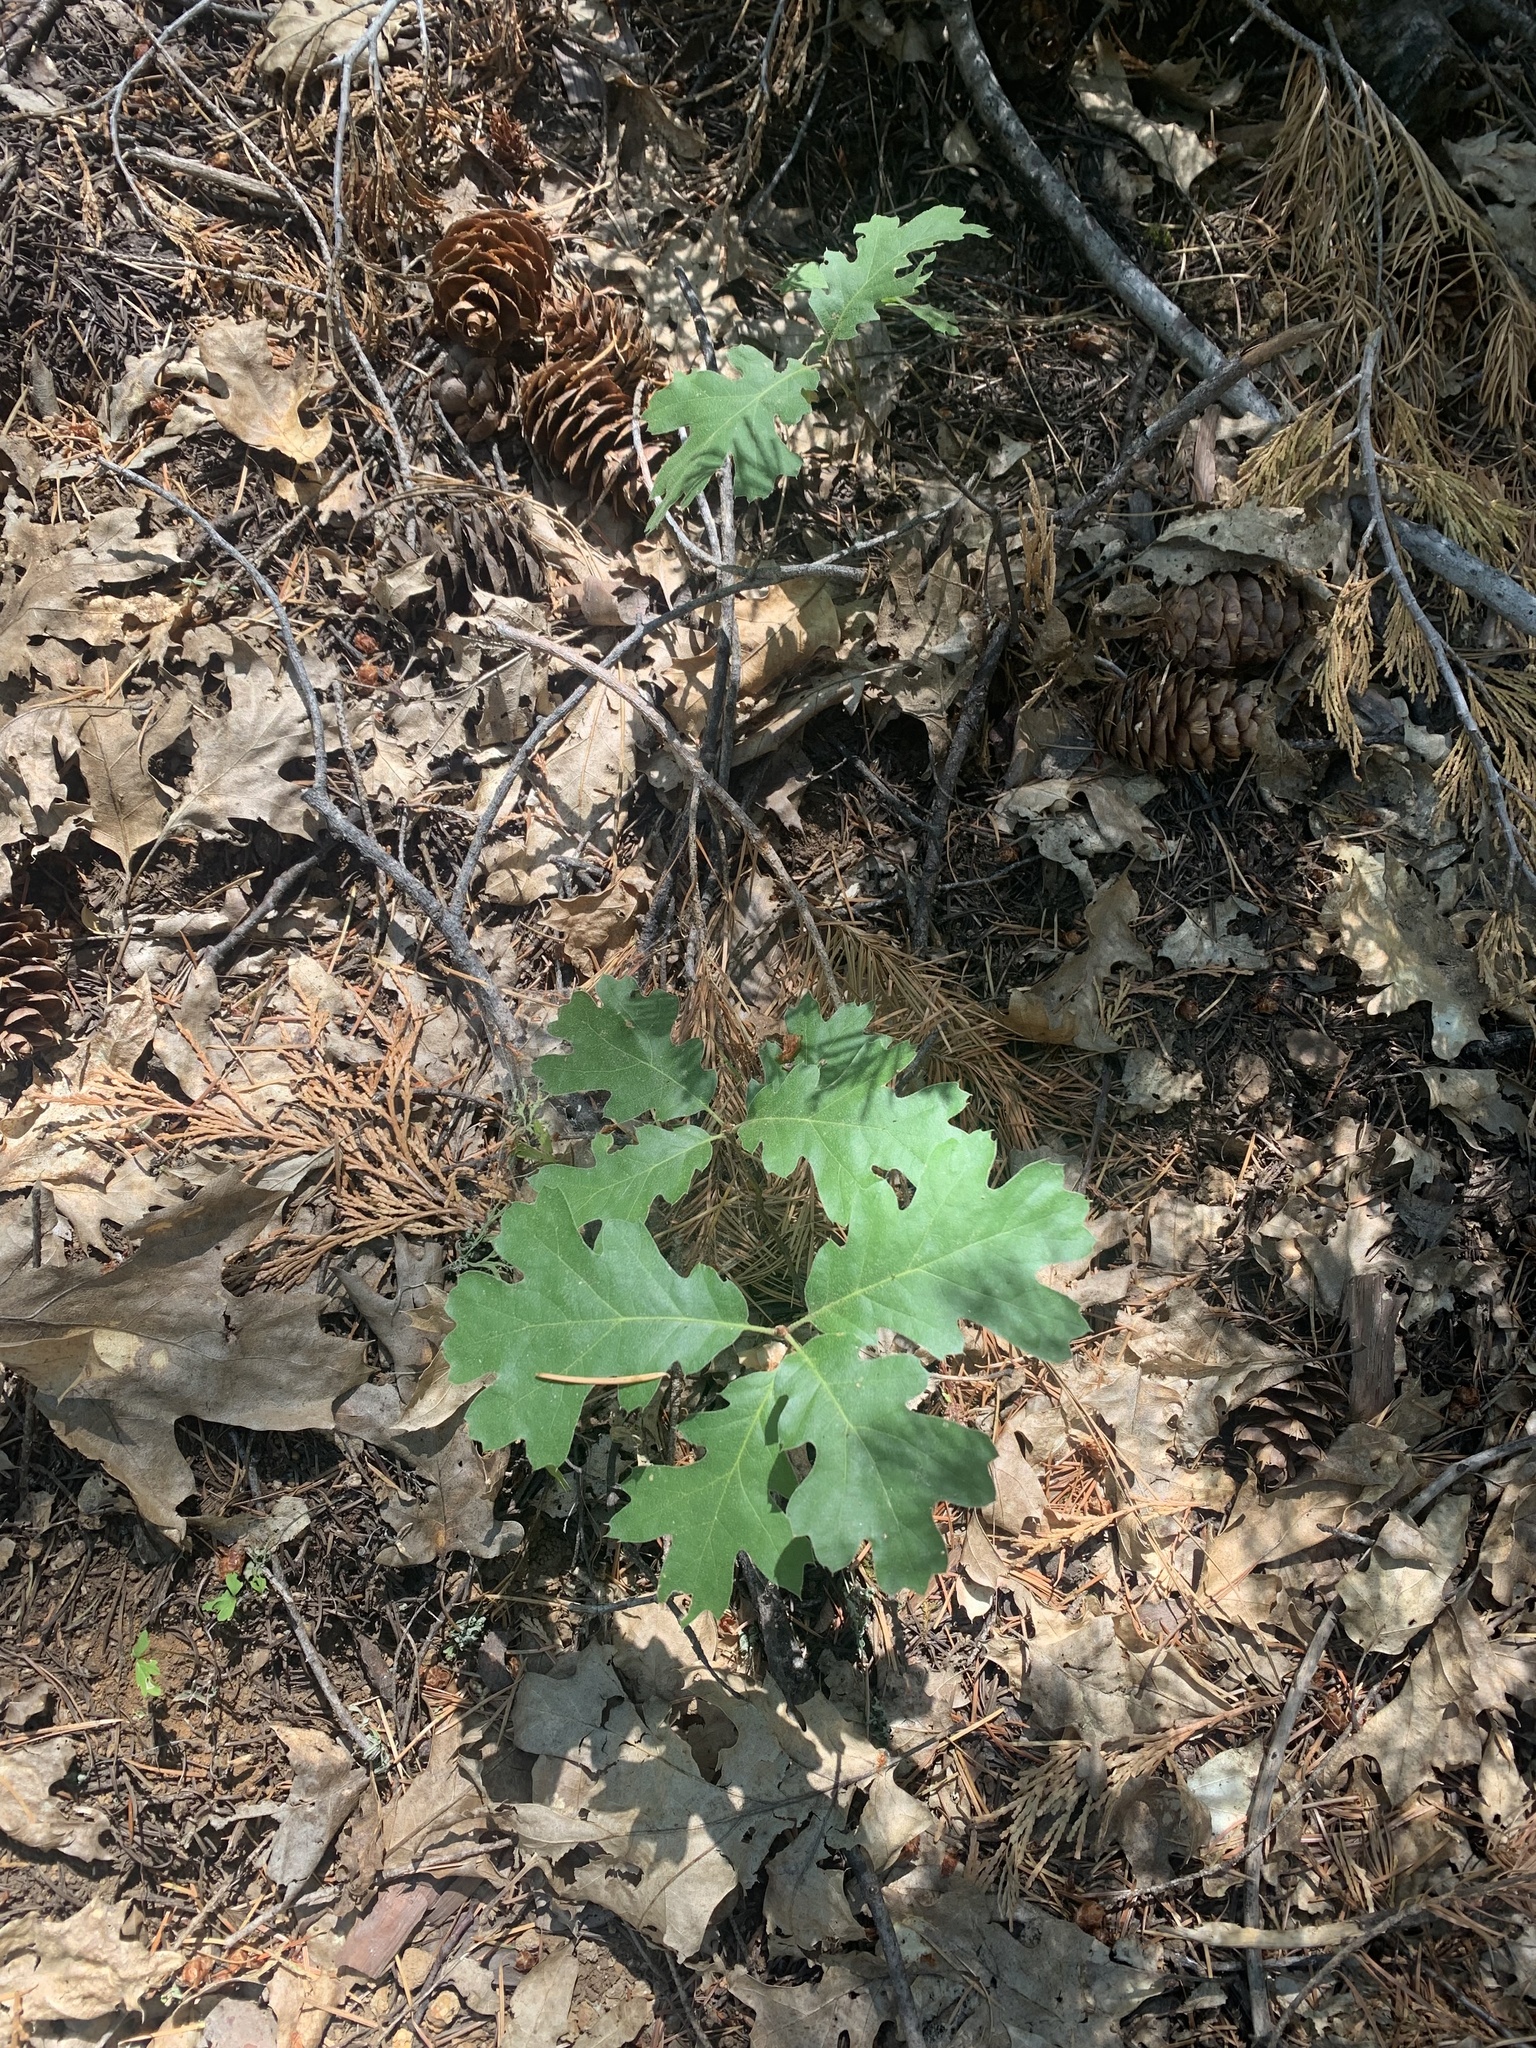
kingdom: Plantae
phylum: Tracheophyta
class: Magnoliopsida
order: Fagales
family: Fagaceae
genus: Quercus
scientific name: Quercus kelloggii
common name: California black oak
